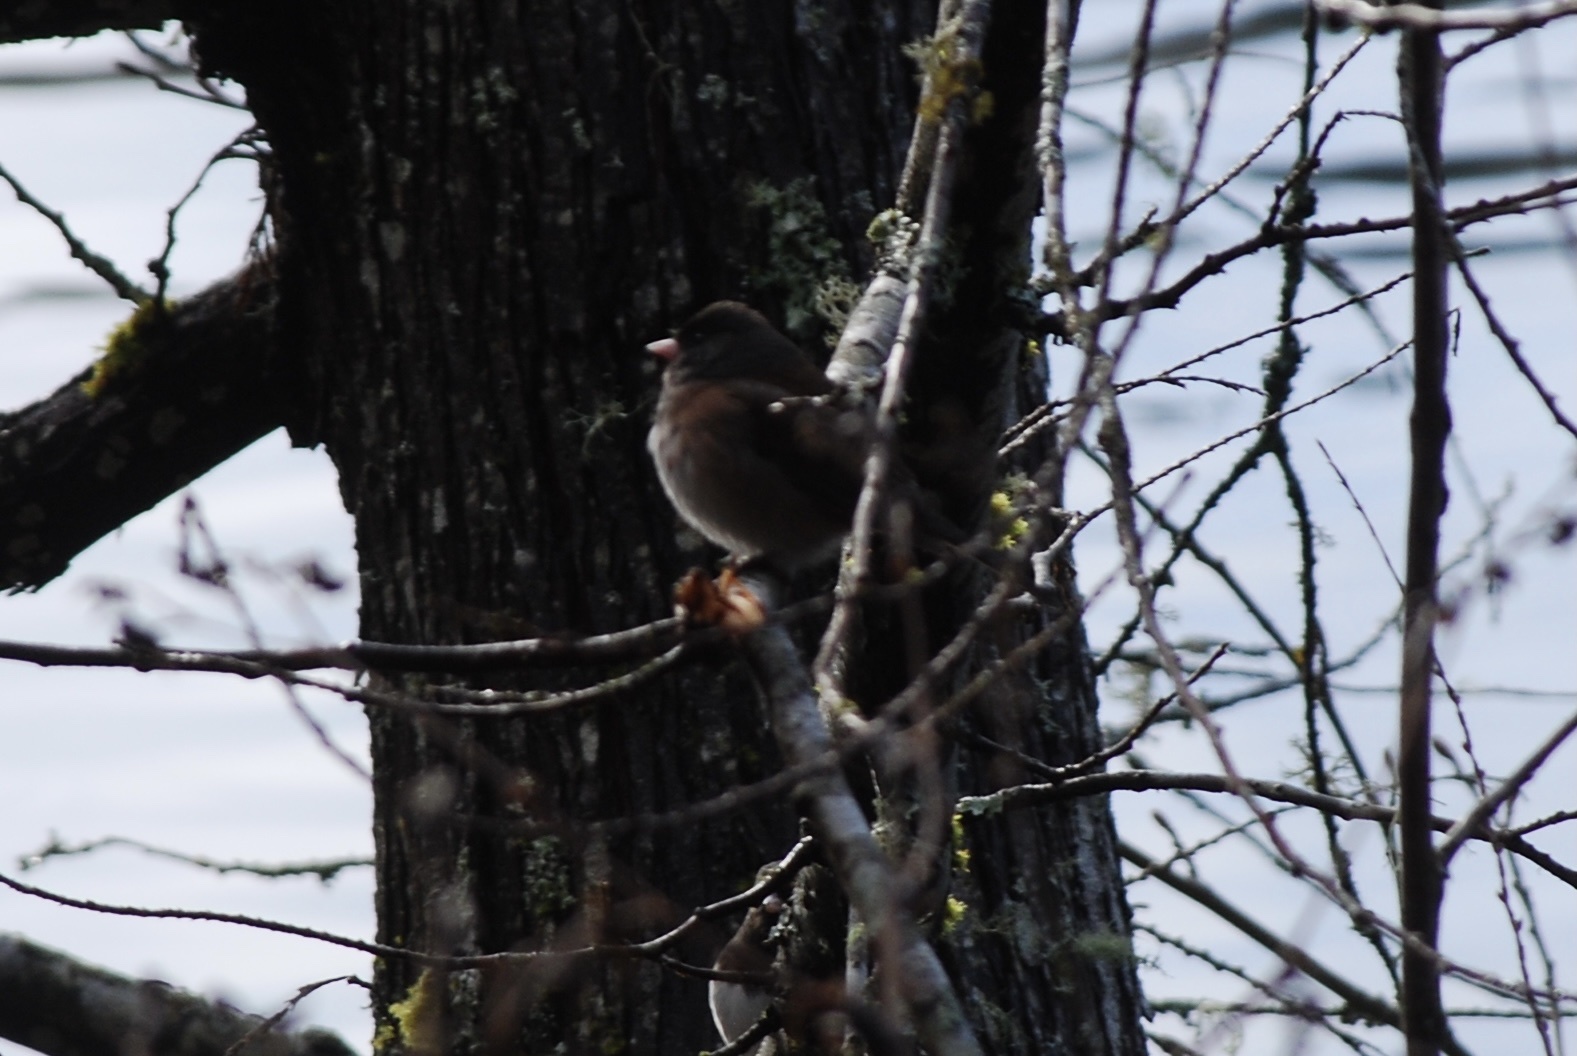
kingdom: Animalia
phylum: Chordata
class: Aves
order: Passeriformes
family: Passerellidae
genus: Junco
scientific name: Junco hyemalis
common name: Dark-eyed junco
